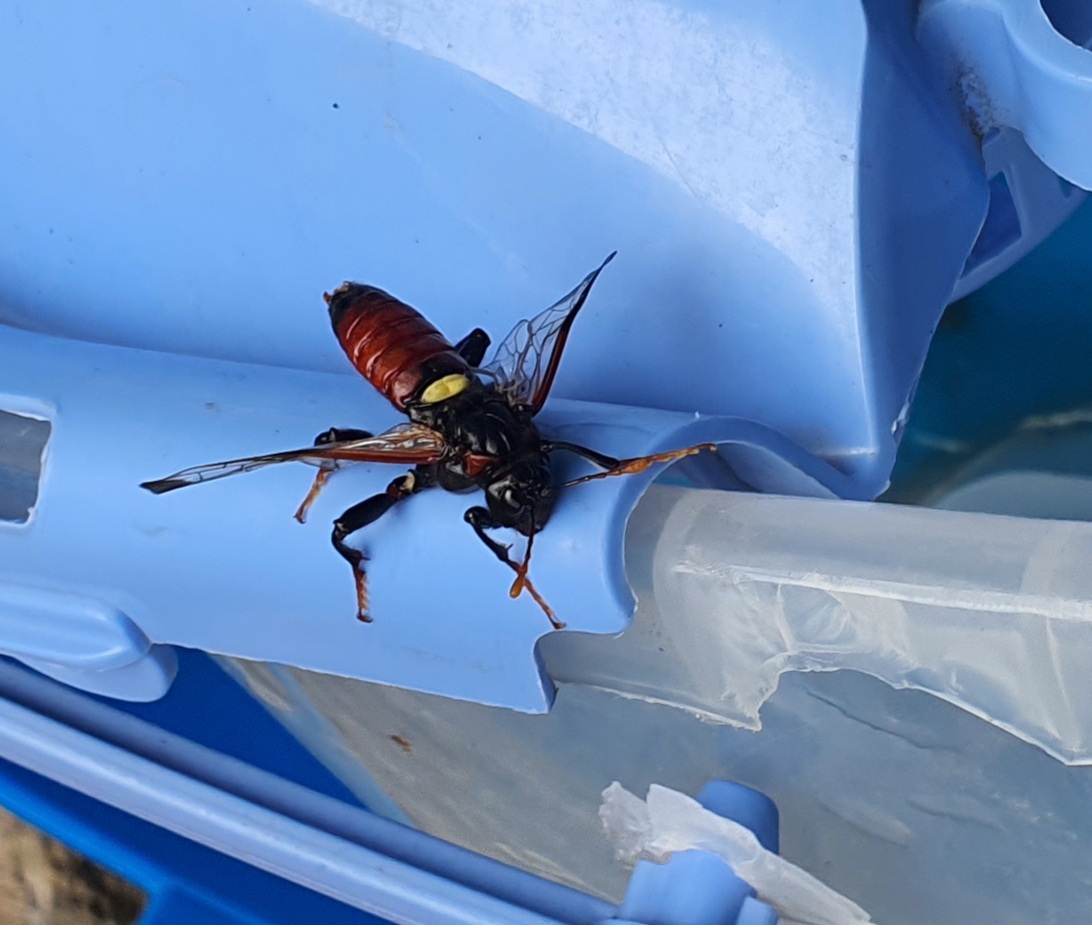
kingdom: Animalia
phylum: Arthropoda
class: Insecta
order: Hymenoptera
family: Cimbicidae
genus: Cimbex
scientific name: Cimbex femoratus
